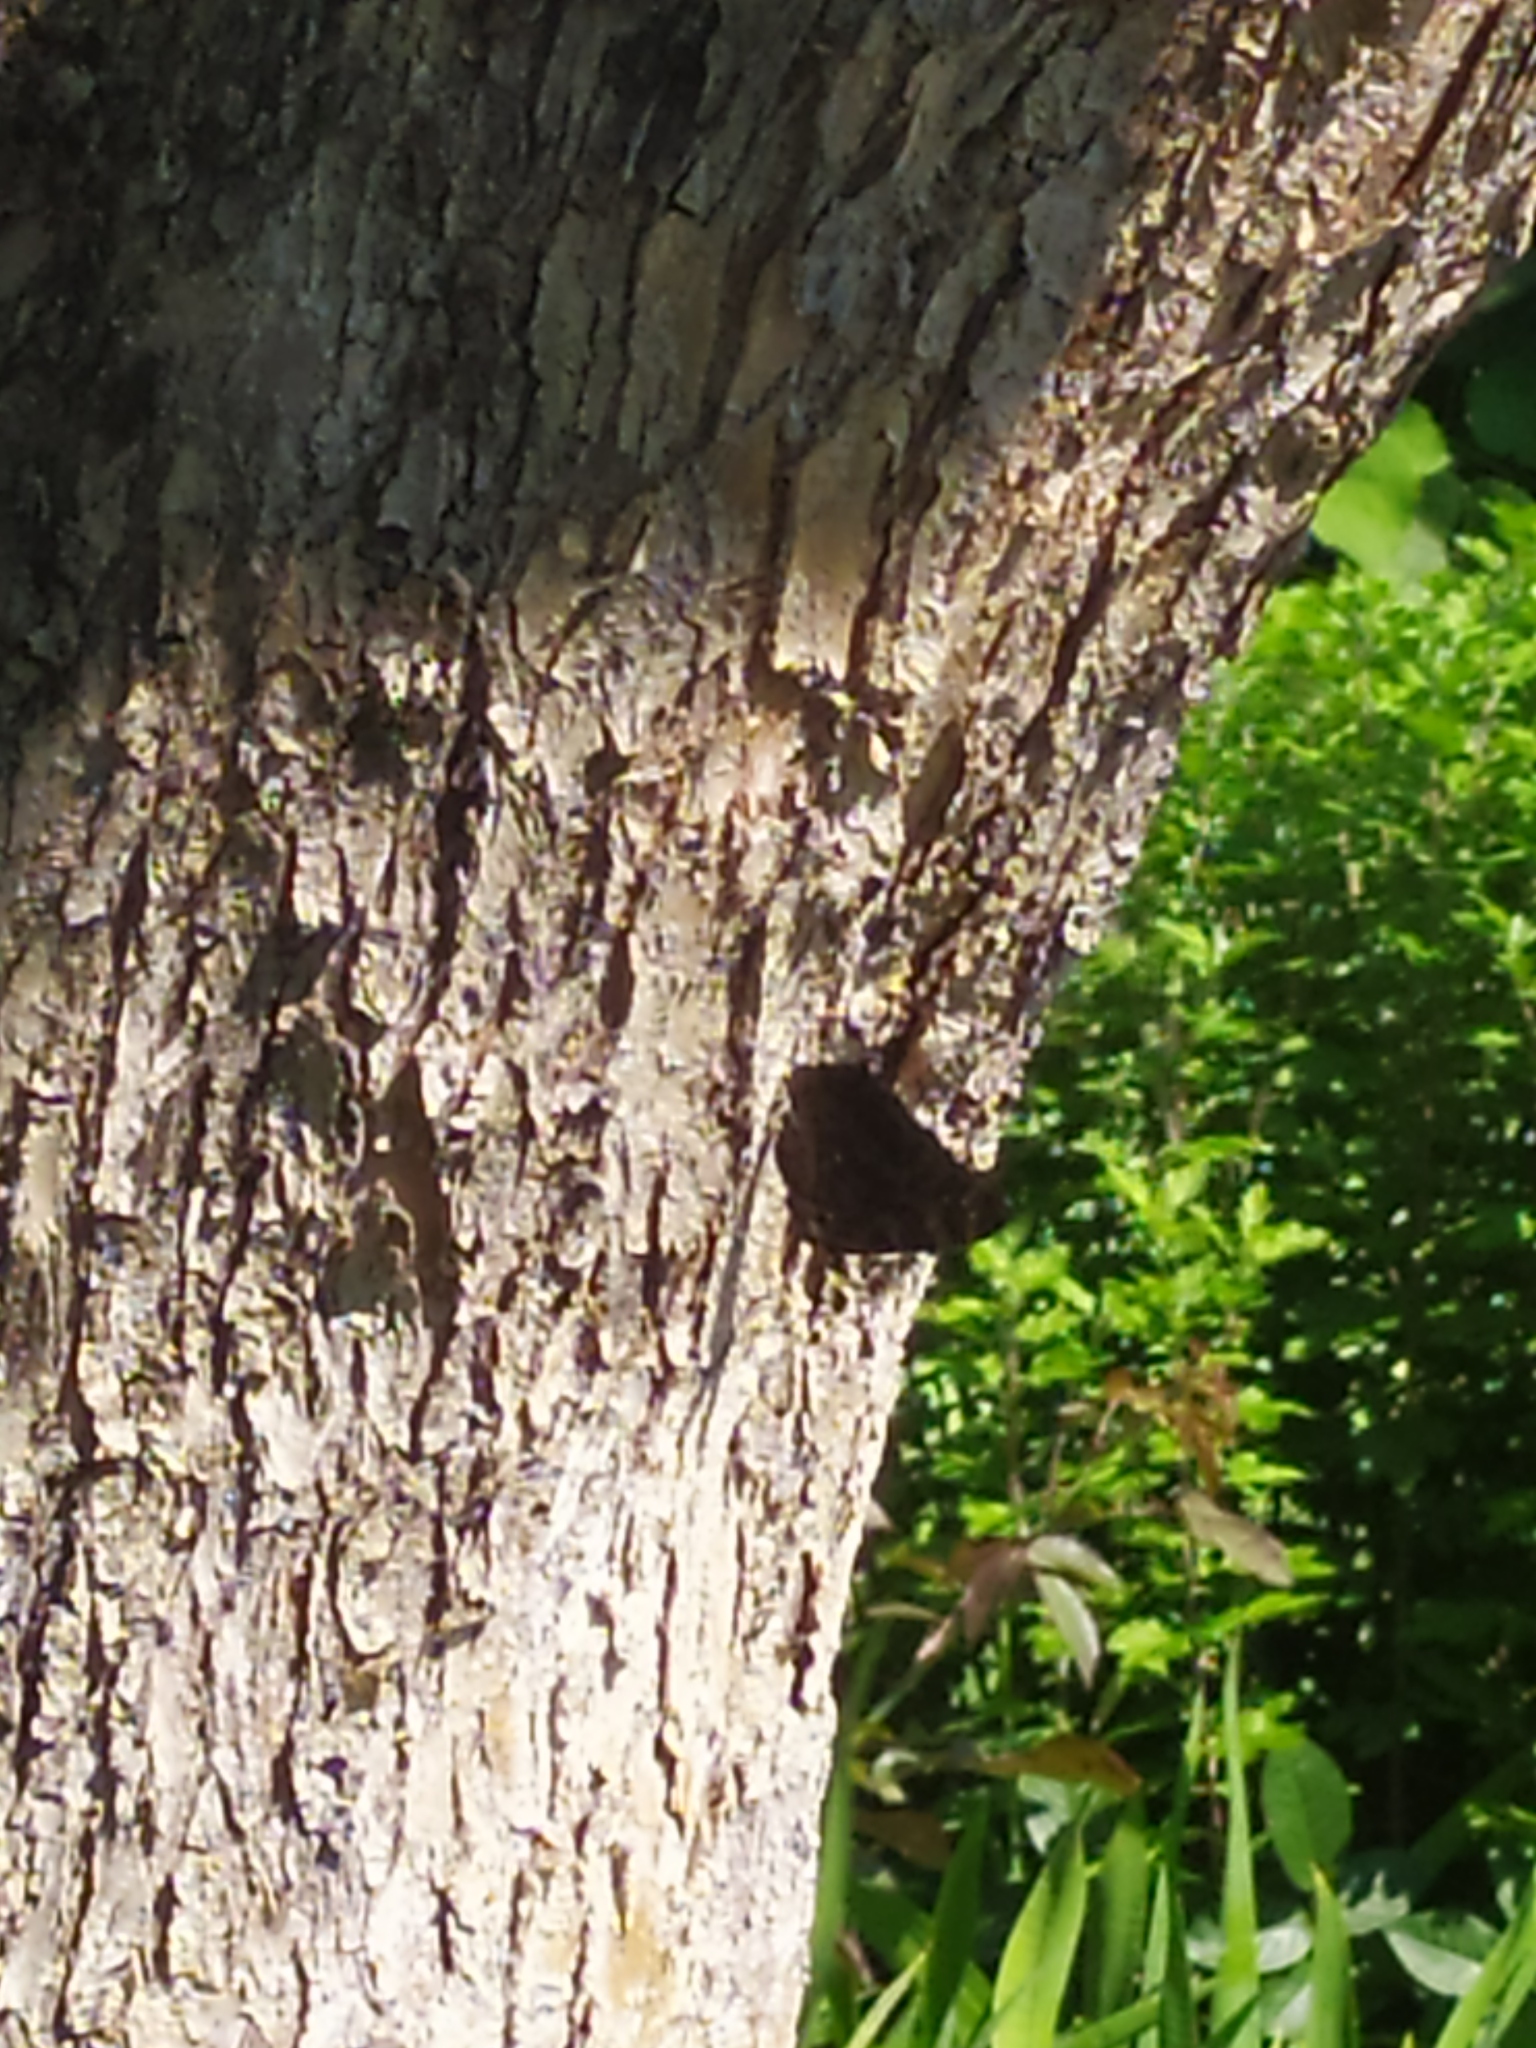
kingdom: Animalia
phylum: Arthropoda
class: Insecta
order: Lepidoptera
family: Nymphalidae
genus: Aglais
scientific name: Aglais io
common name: Peacock
